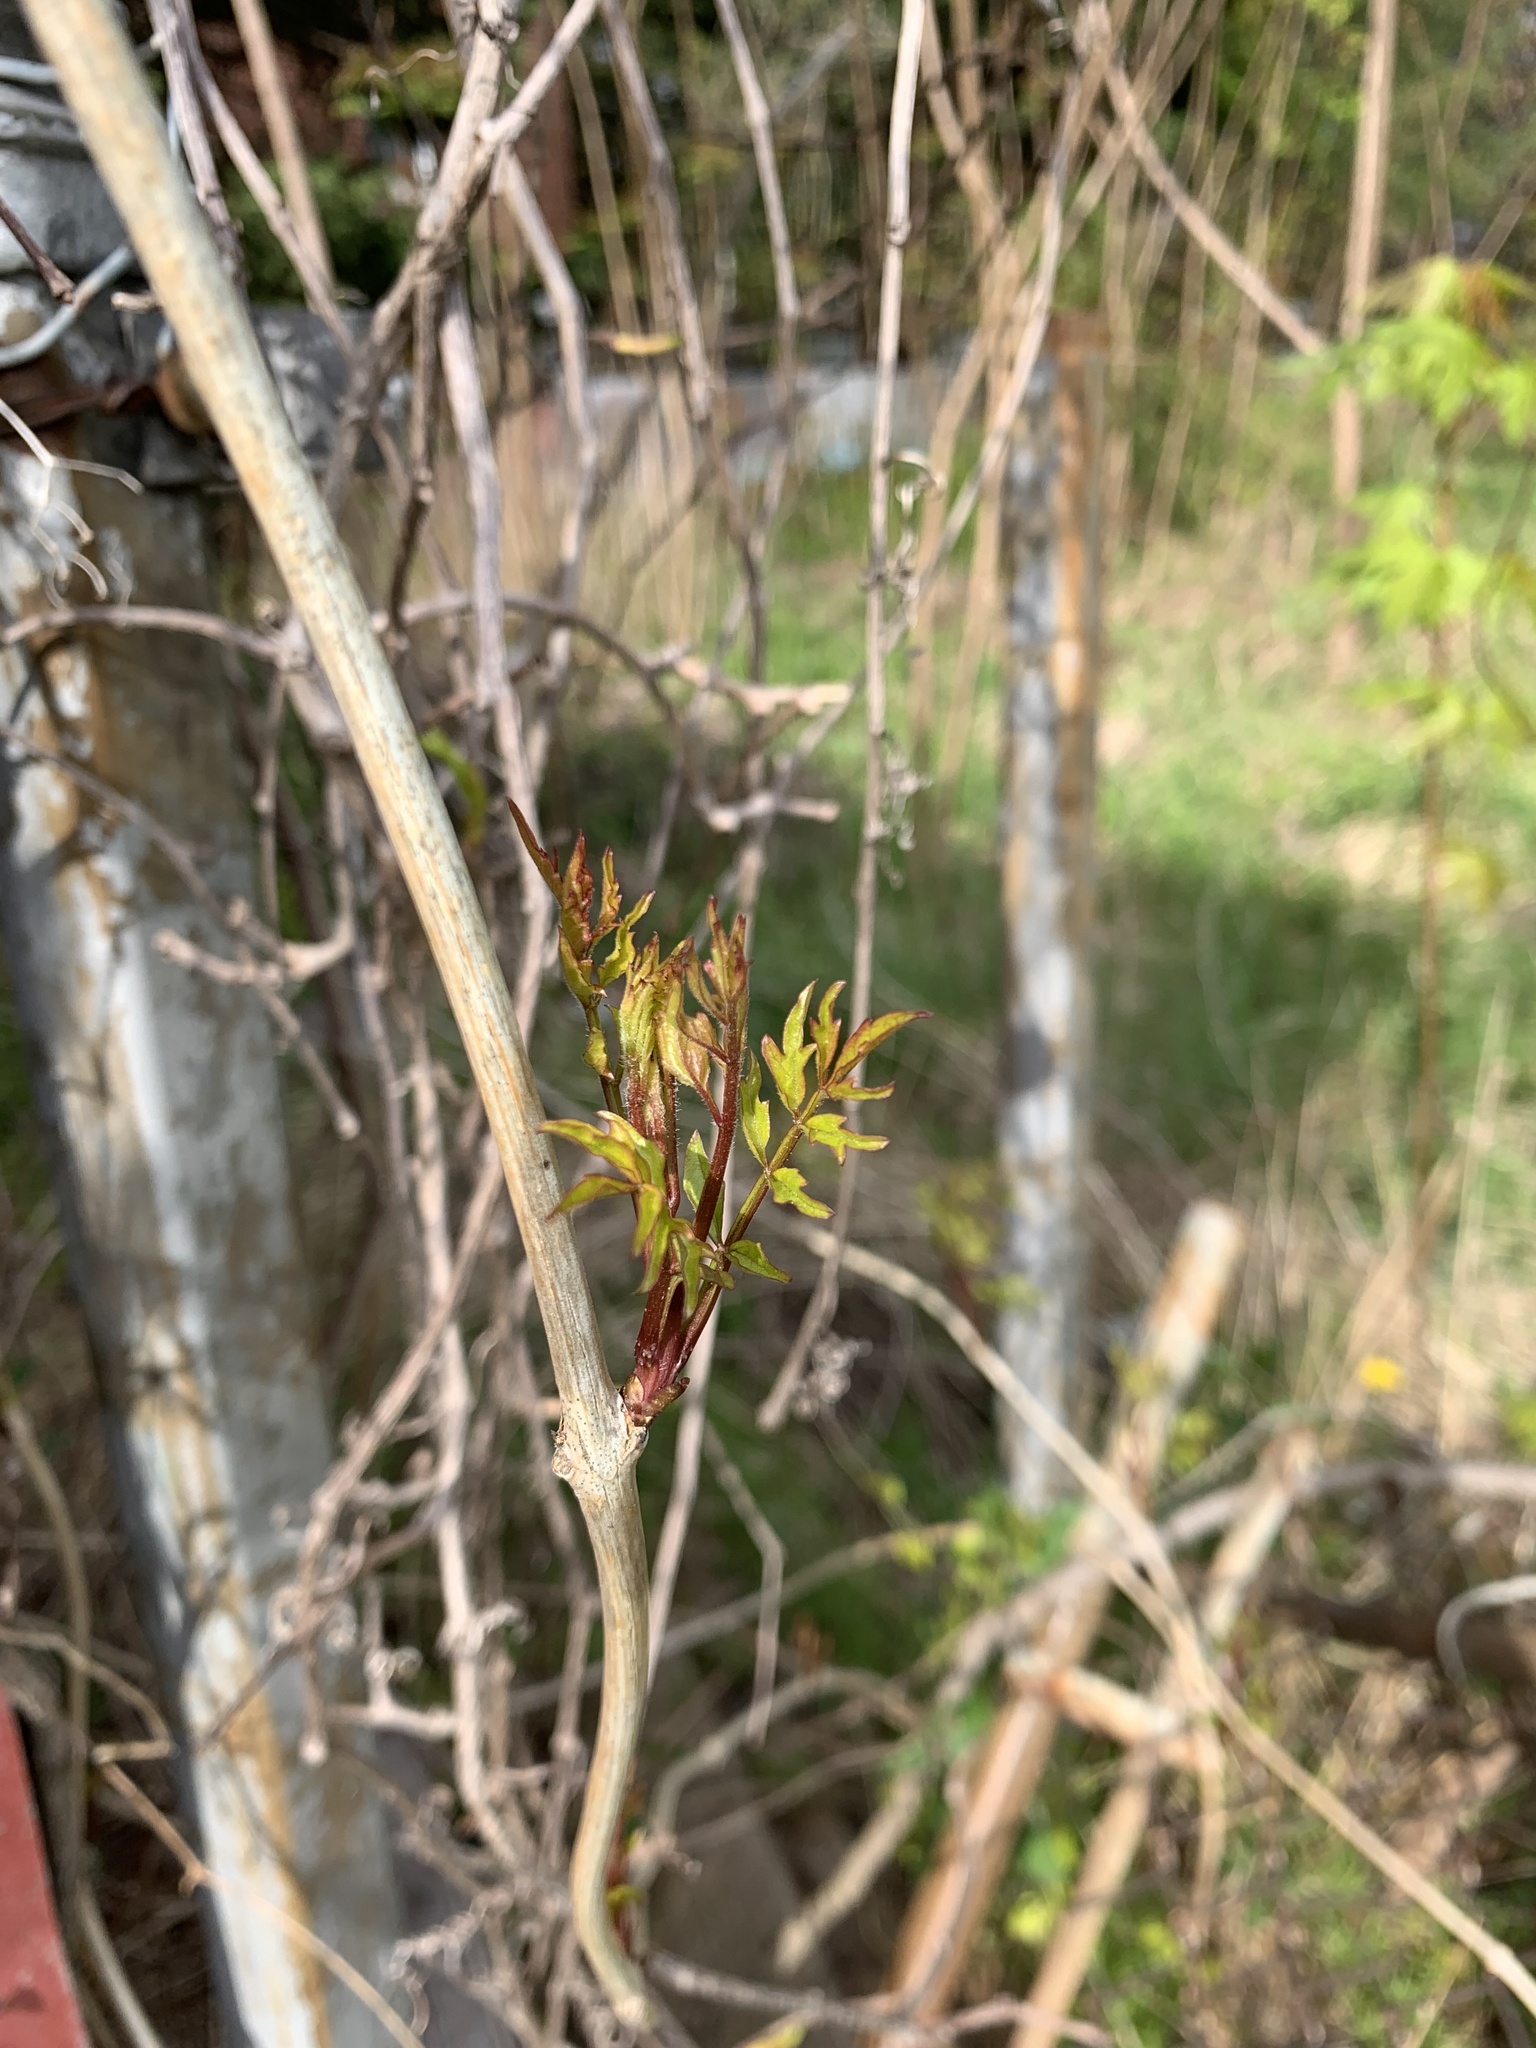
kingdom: Plantae
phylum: Tracheophyta
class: Magnoliopsida
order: Lamiales
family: Bignoniaceae
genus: Campsis
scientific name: Campsis radicans
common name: Trumpet-creeper
